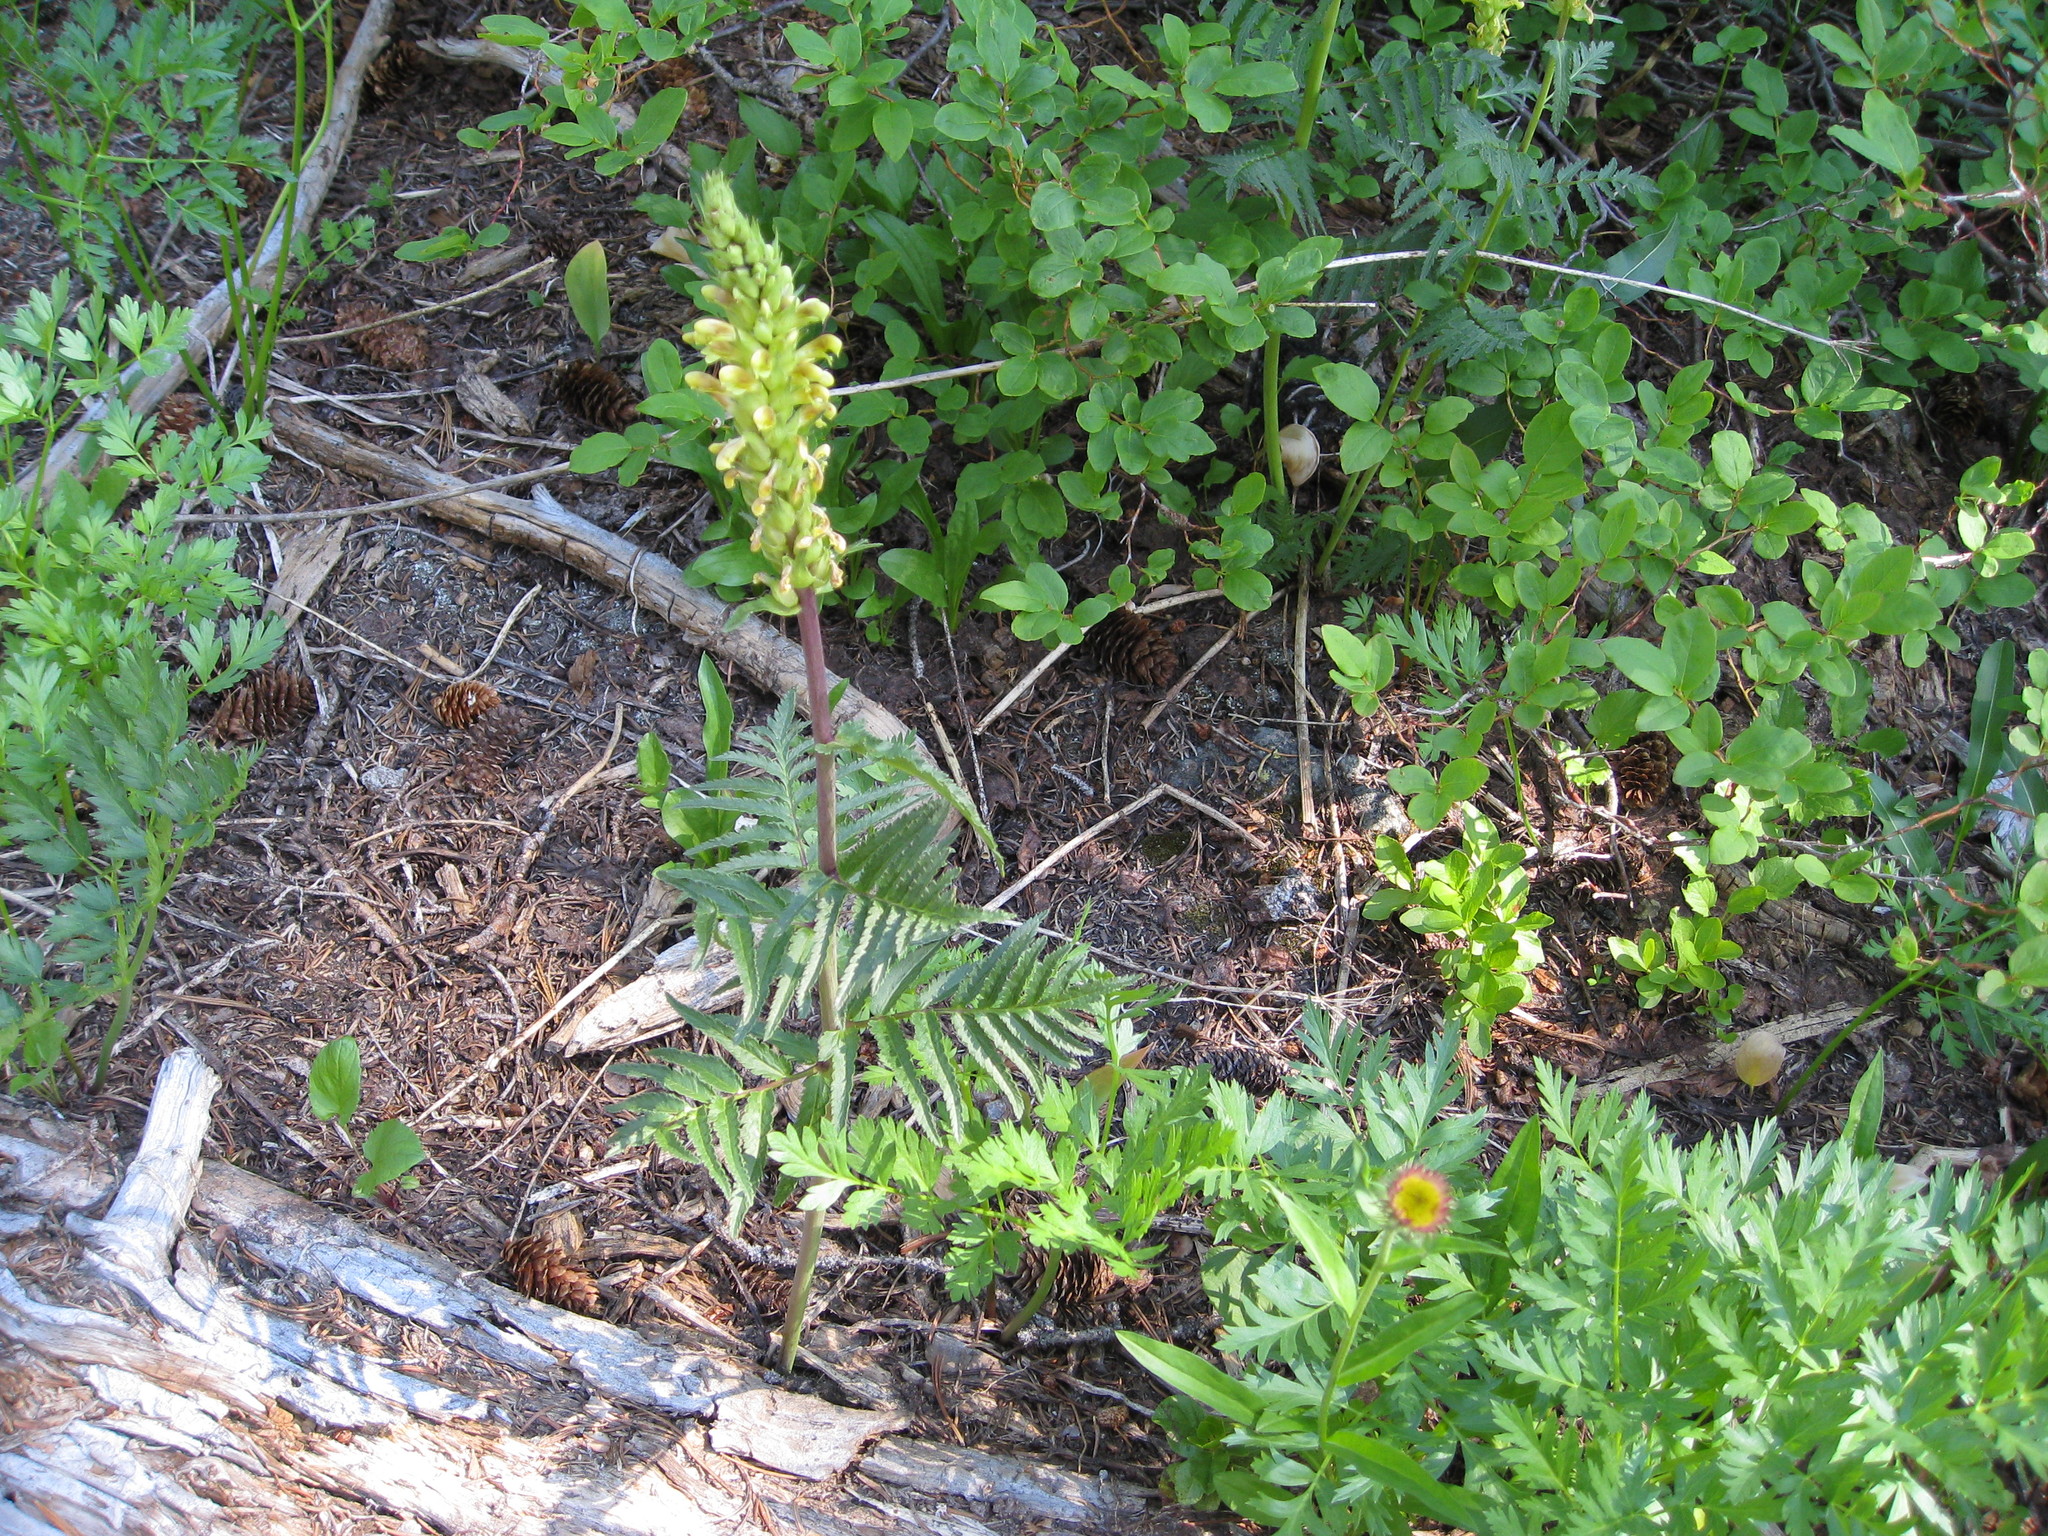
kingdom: Plantae
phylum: Tracheophyta
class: Magnoliopsida
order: Lamiales
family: Orobanchaceae
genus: Pedicularis
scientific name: Pedicularis bracteosa
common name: Bracted lousewort
